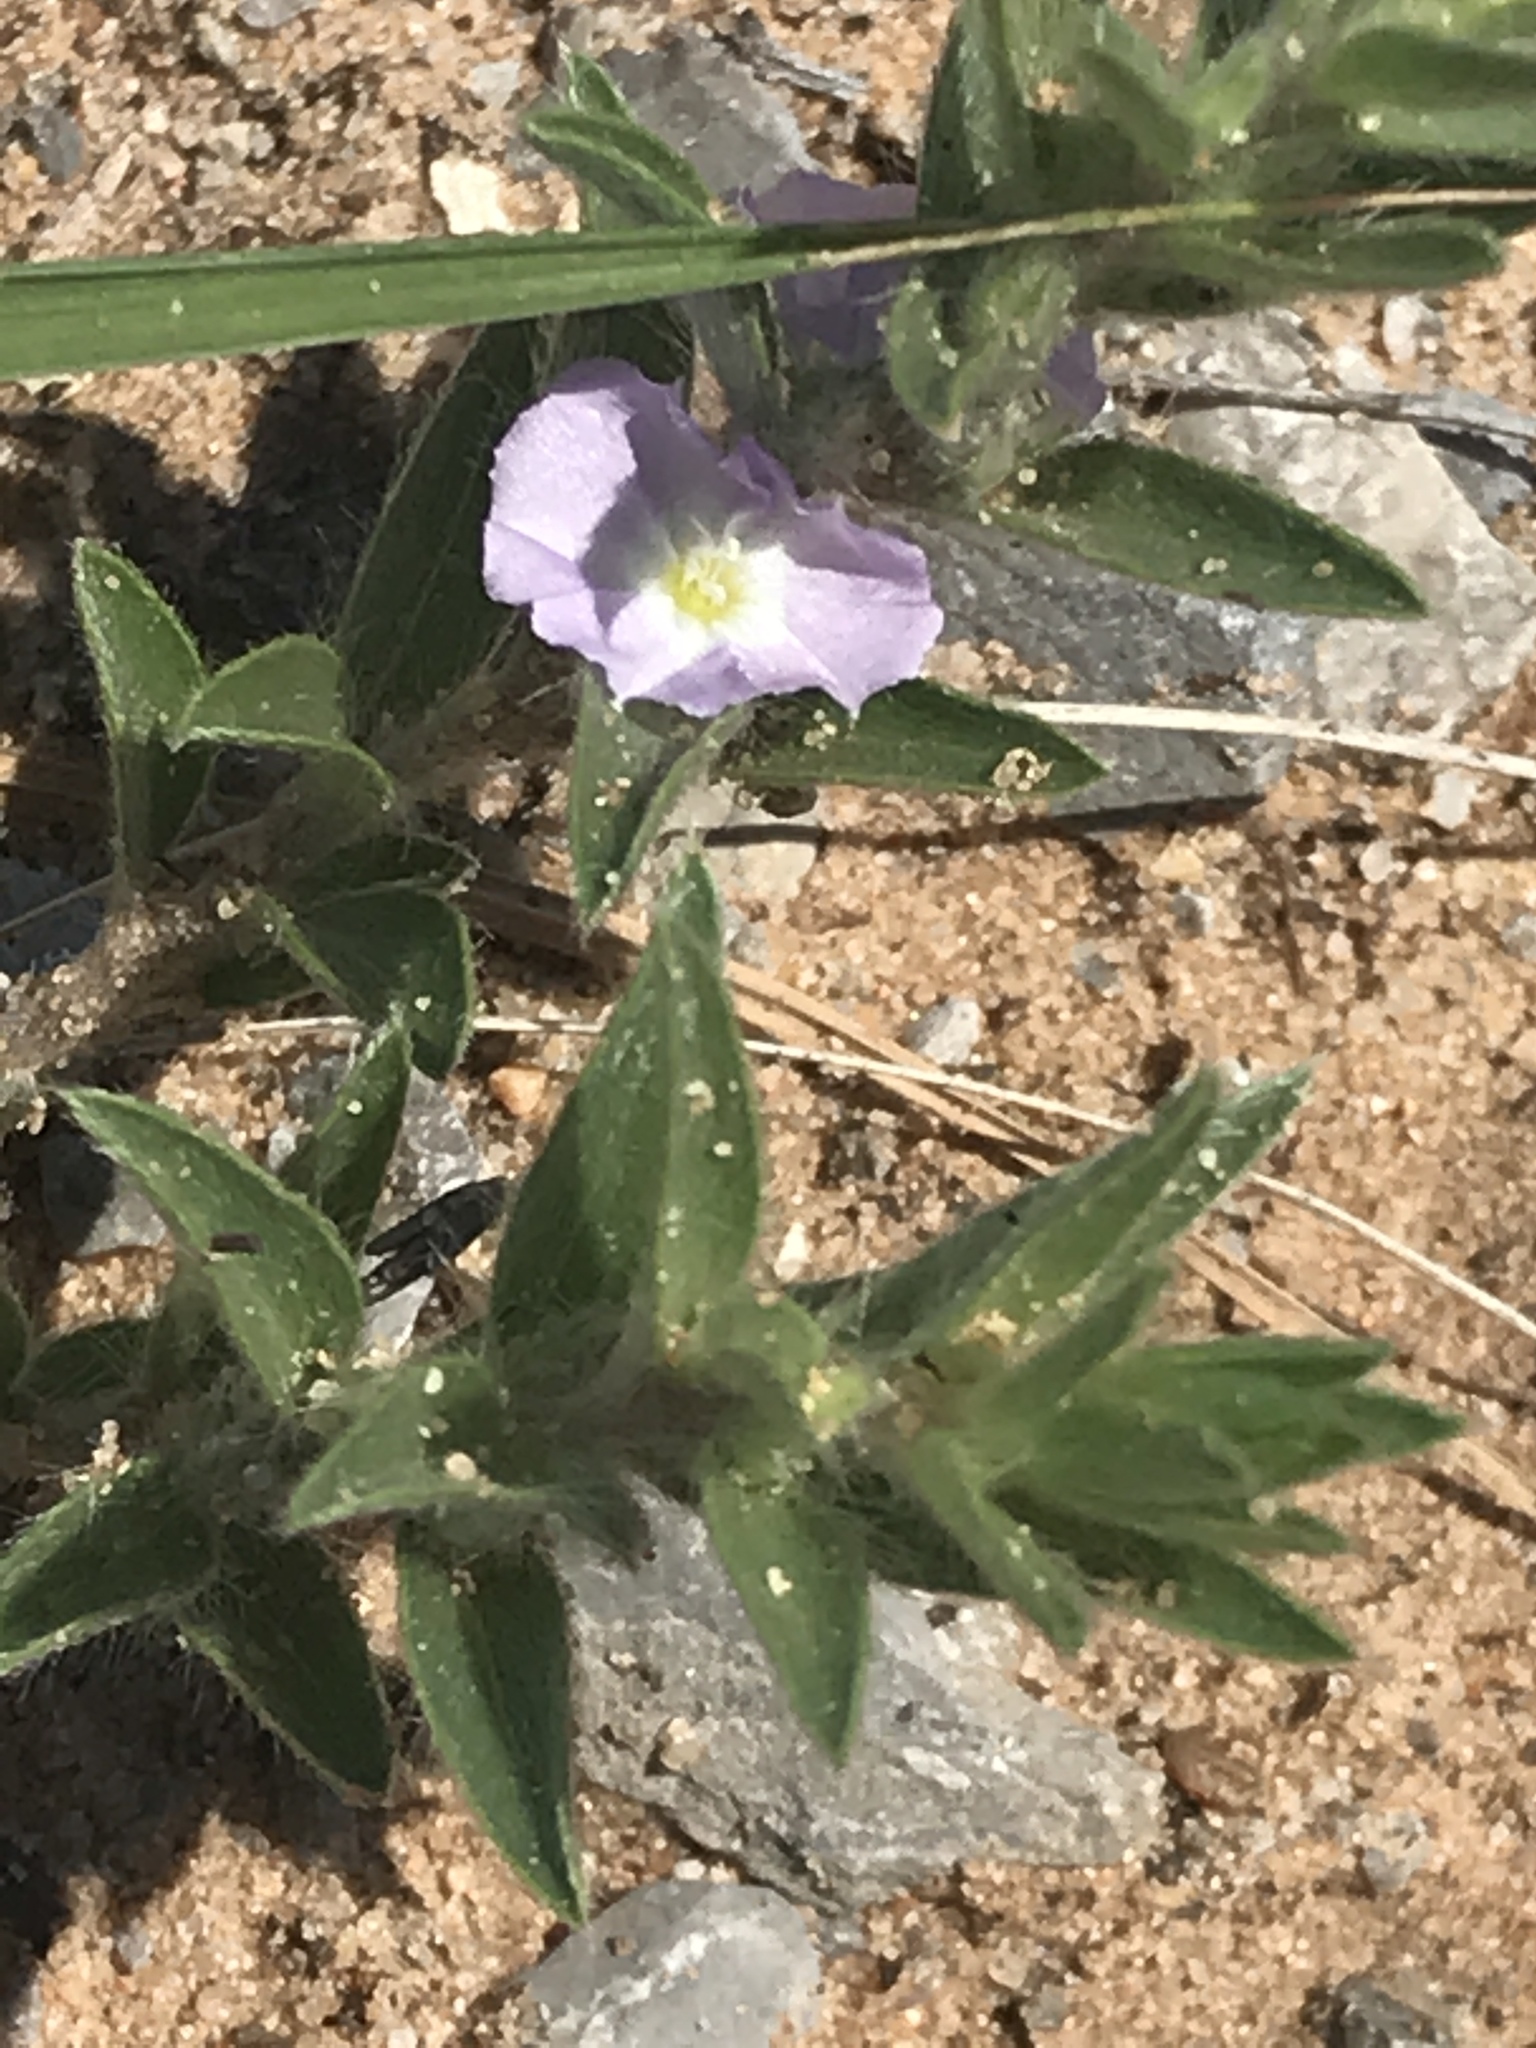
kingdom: Plantae
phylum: Tracheophyta
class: Magnoliopsida
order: Solanales
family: Convolvulaceae
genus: Evolvulus
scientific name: Evolvulus nuttallianus
